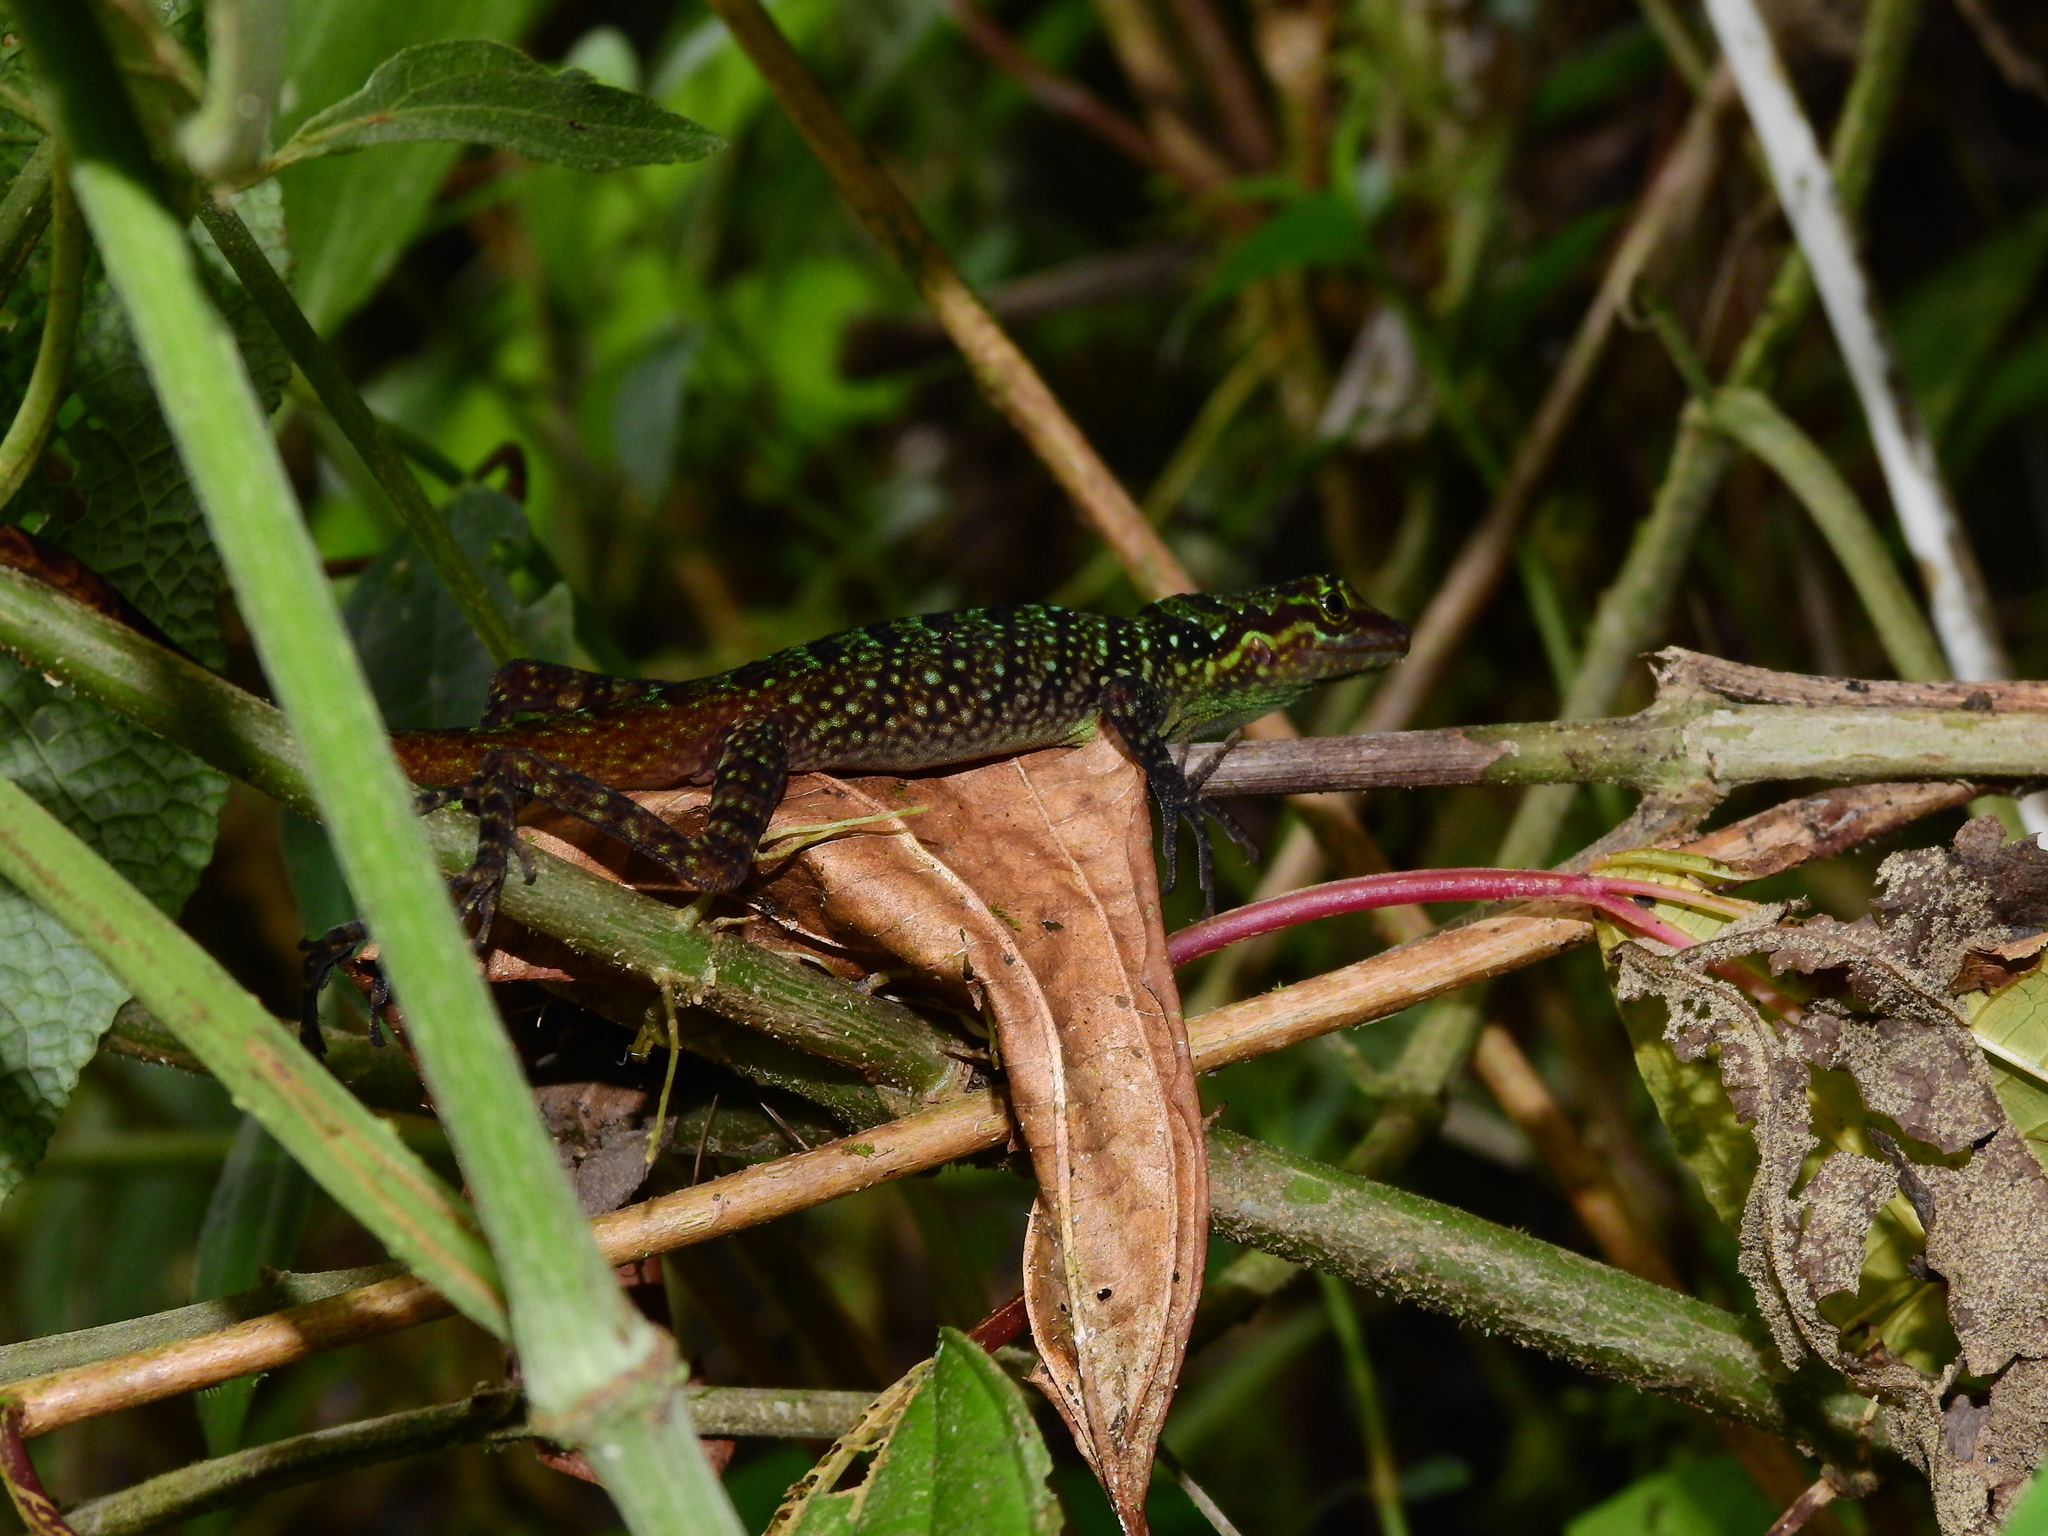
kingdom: Animalia
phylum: Chordata
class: Squamata
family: Dactyloidae
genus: Anolis
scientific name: Anolis ventrimaculatus
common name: Speckled anole
